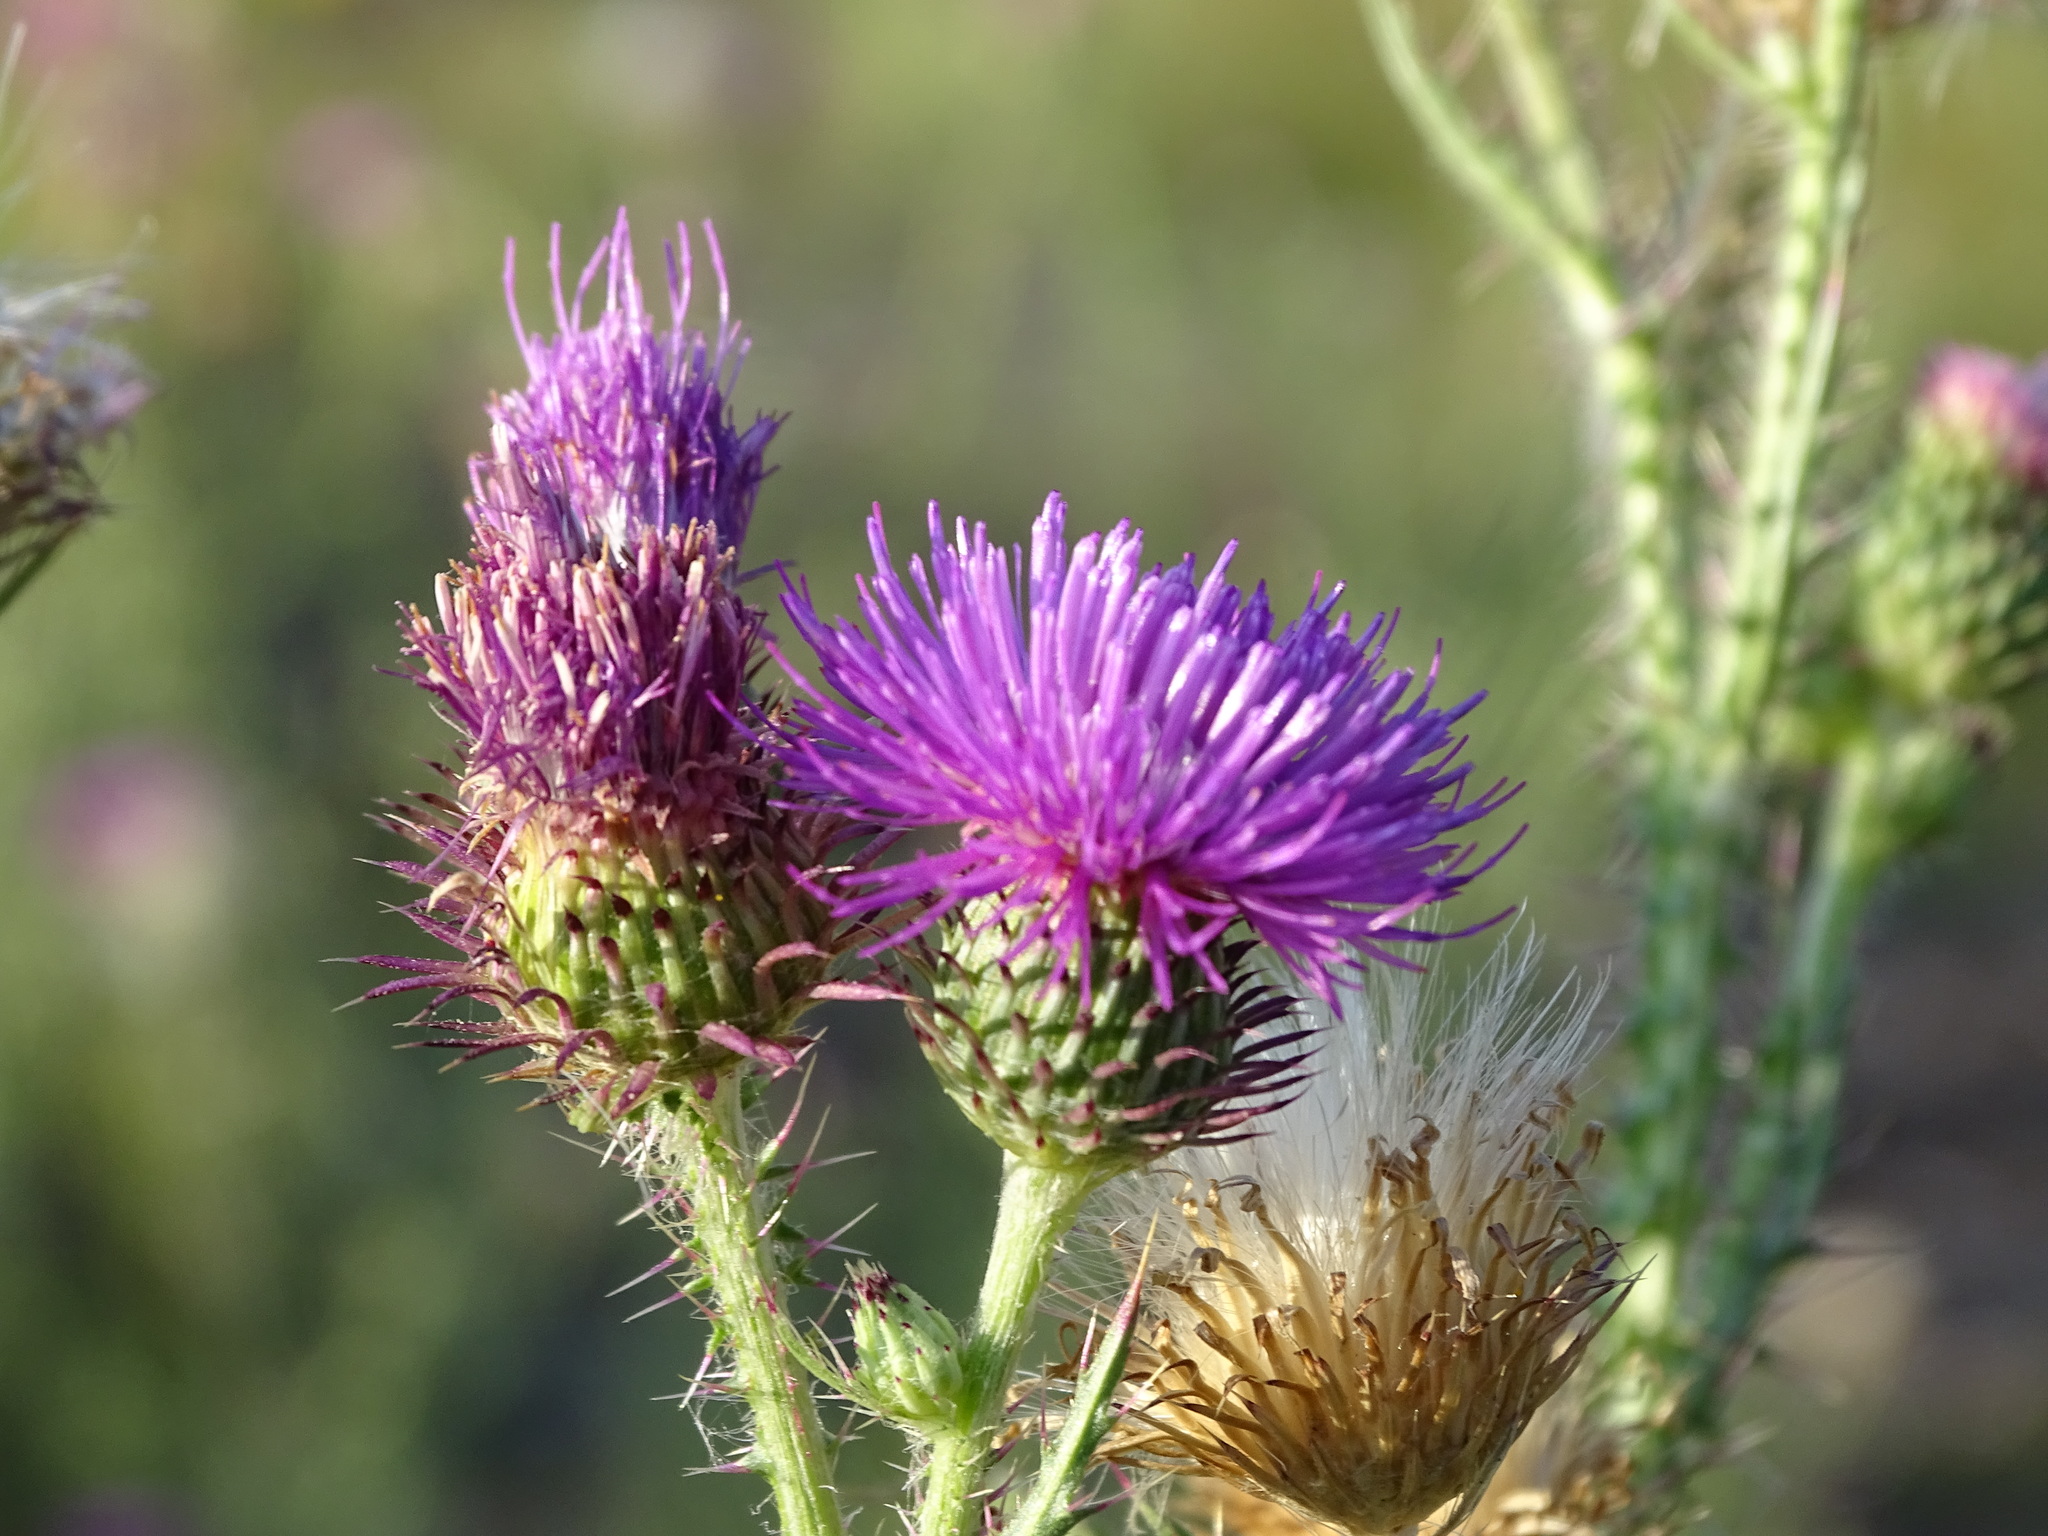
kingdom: Plantae
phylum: Tracheophyta
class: Magnoliopsida
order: Asterales
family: Asteraceae
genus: Carduus
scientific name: Carduus acanthoides
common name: Plumeless thistle
